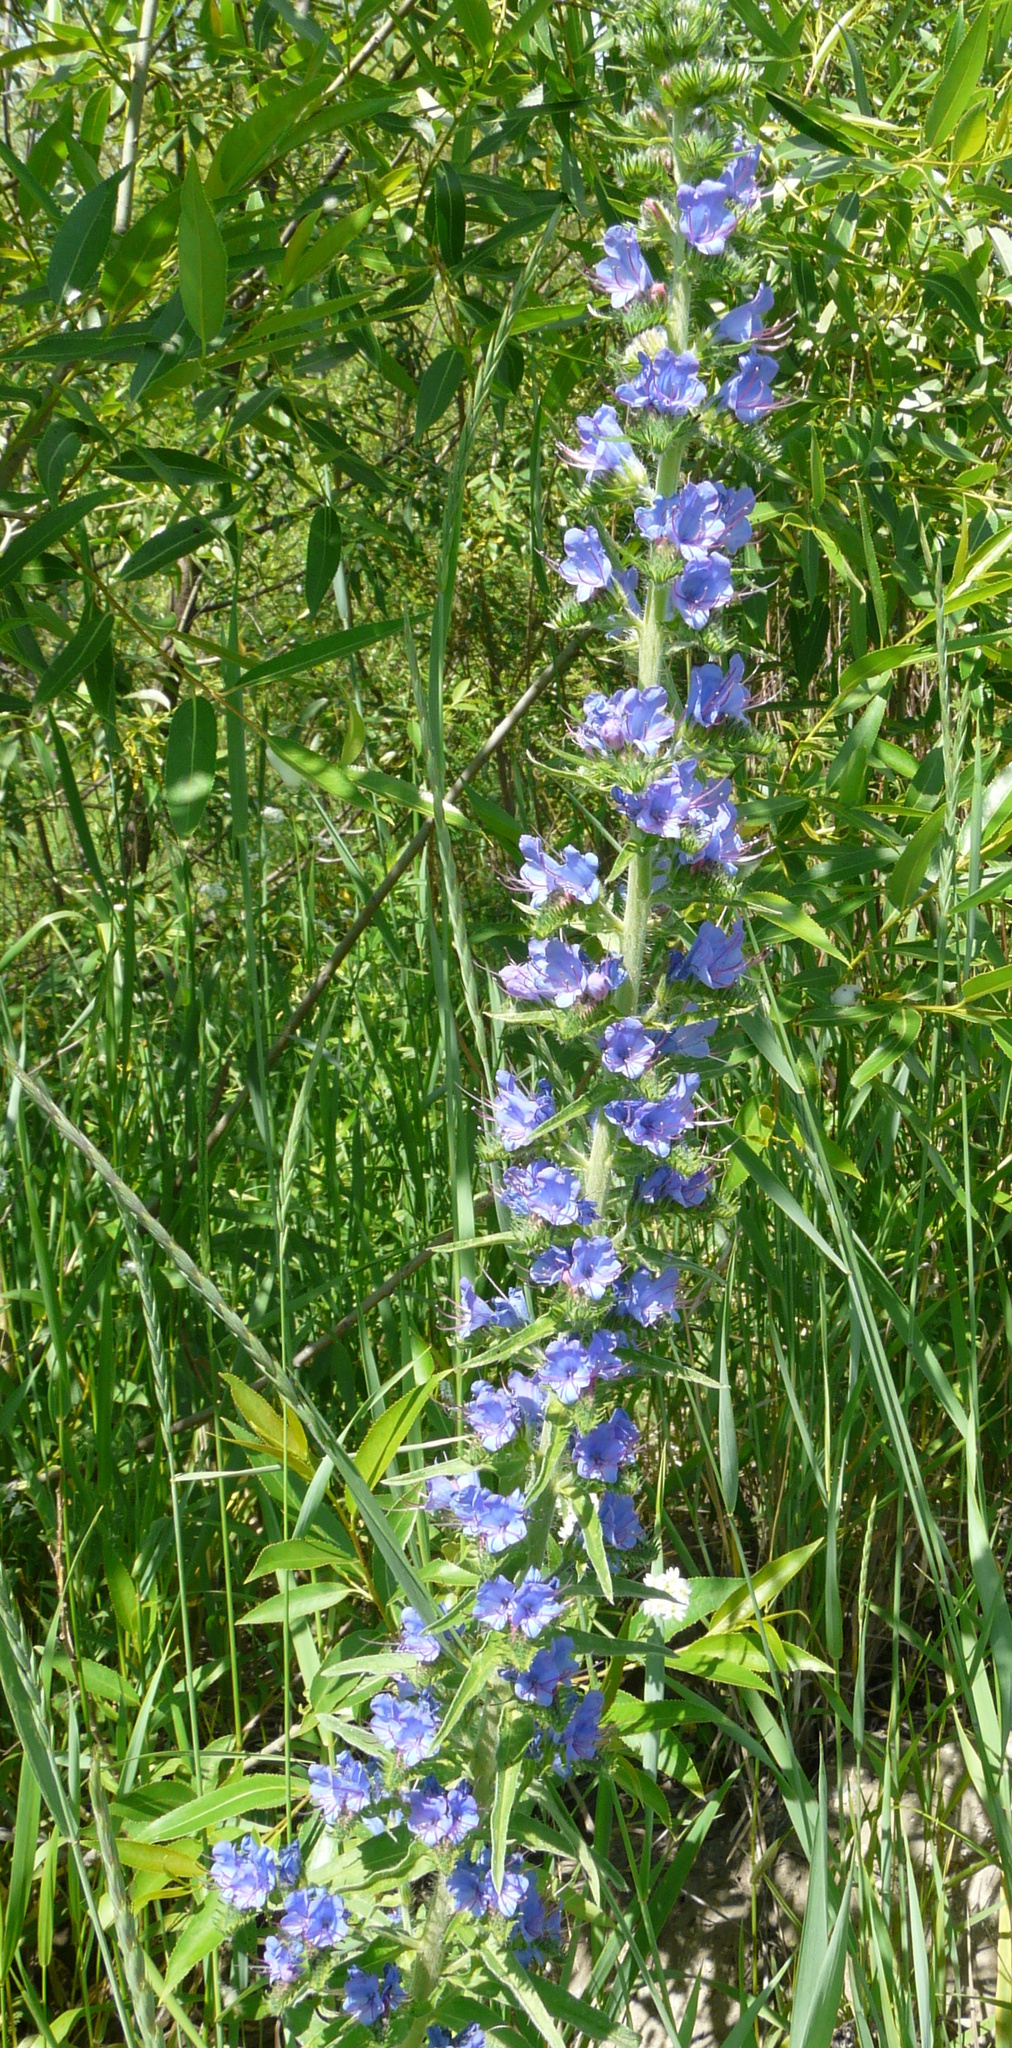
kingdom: Plantae
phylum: Tracheophyta
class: Magnoliopsida
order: Boraginales
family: Boraginaceae
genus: Echium
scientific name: Echium vulgare
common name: Common viper's bugloss
